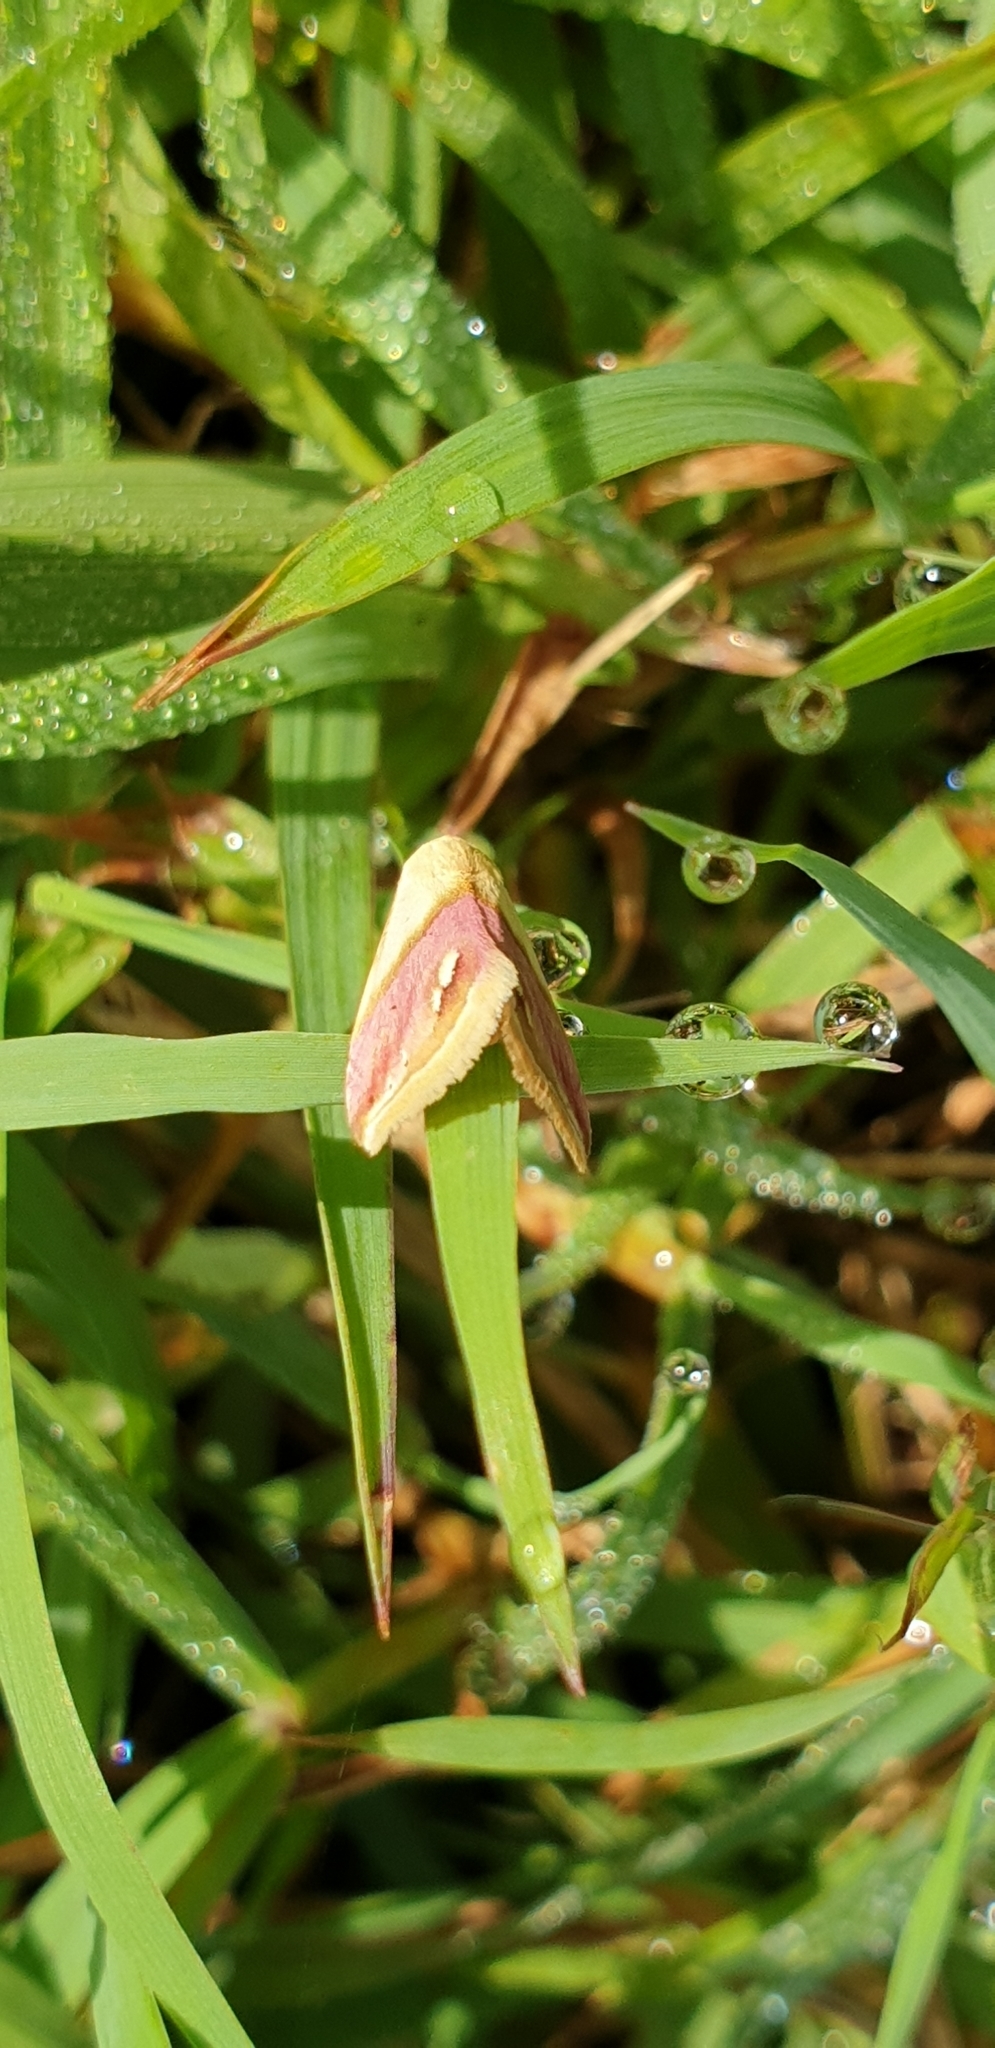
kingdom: Animalia
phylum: Arthropoda
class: Insecta
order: Lepidoptera
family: Noctuidae
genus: Eublemma
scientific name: Eublemma cochylioides
